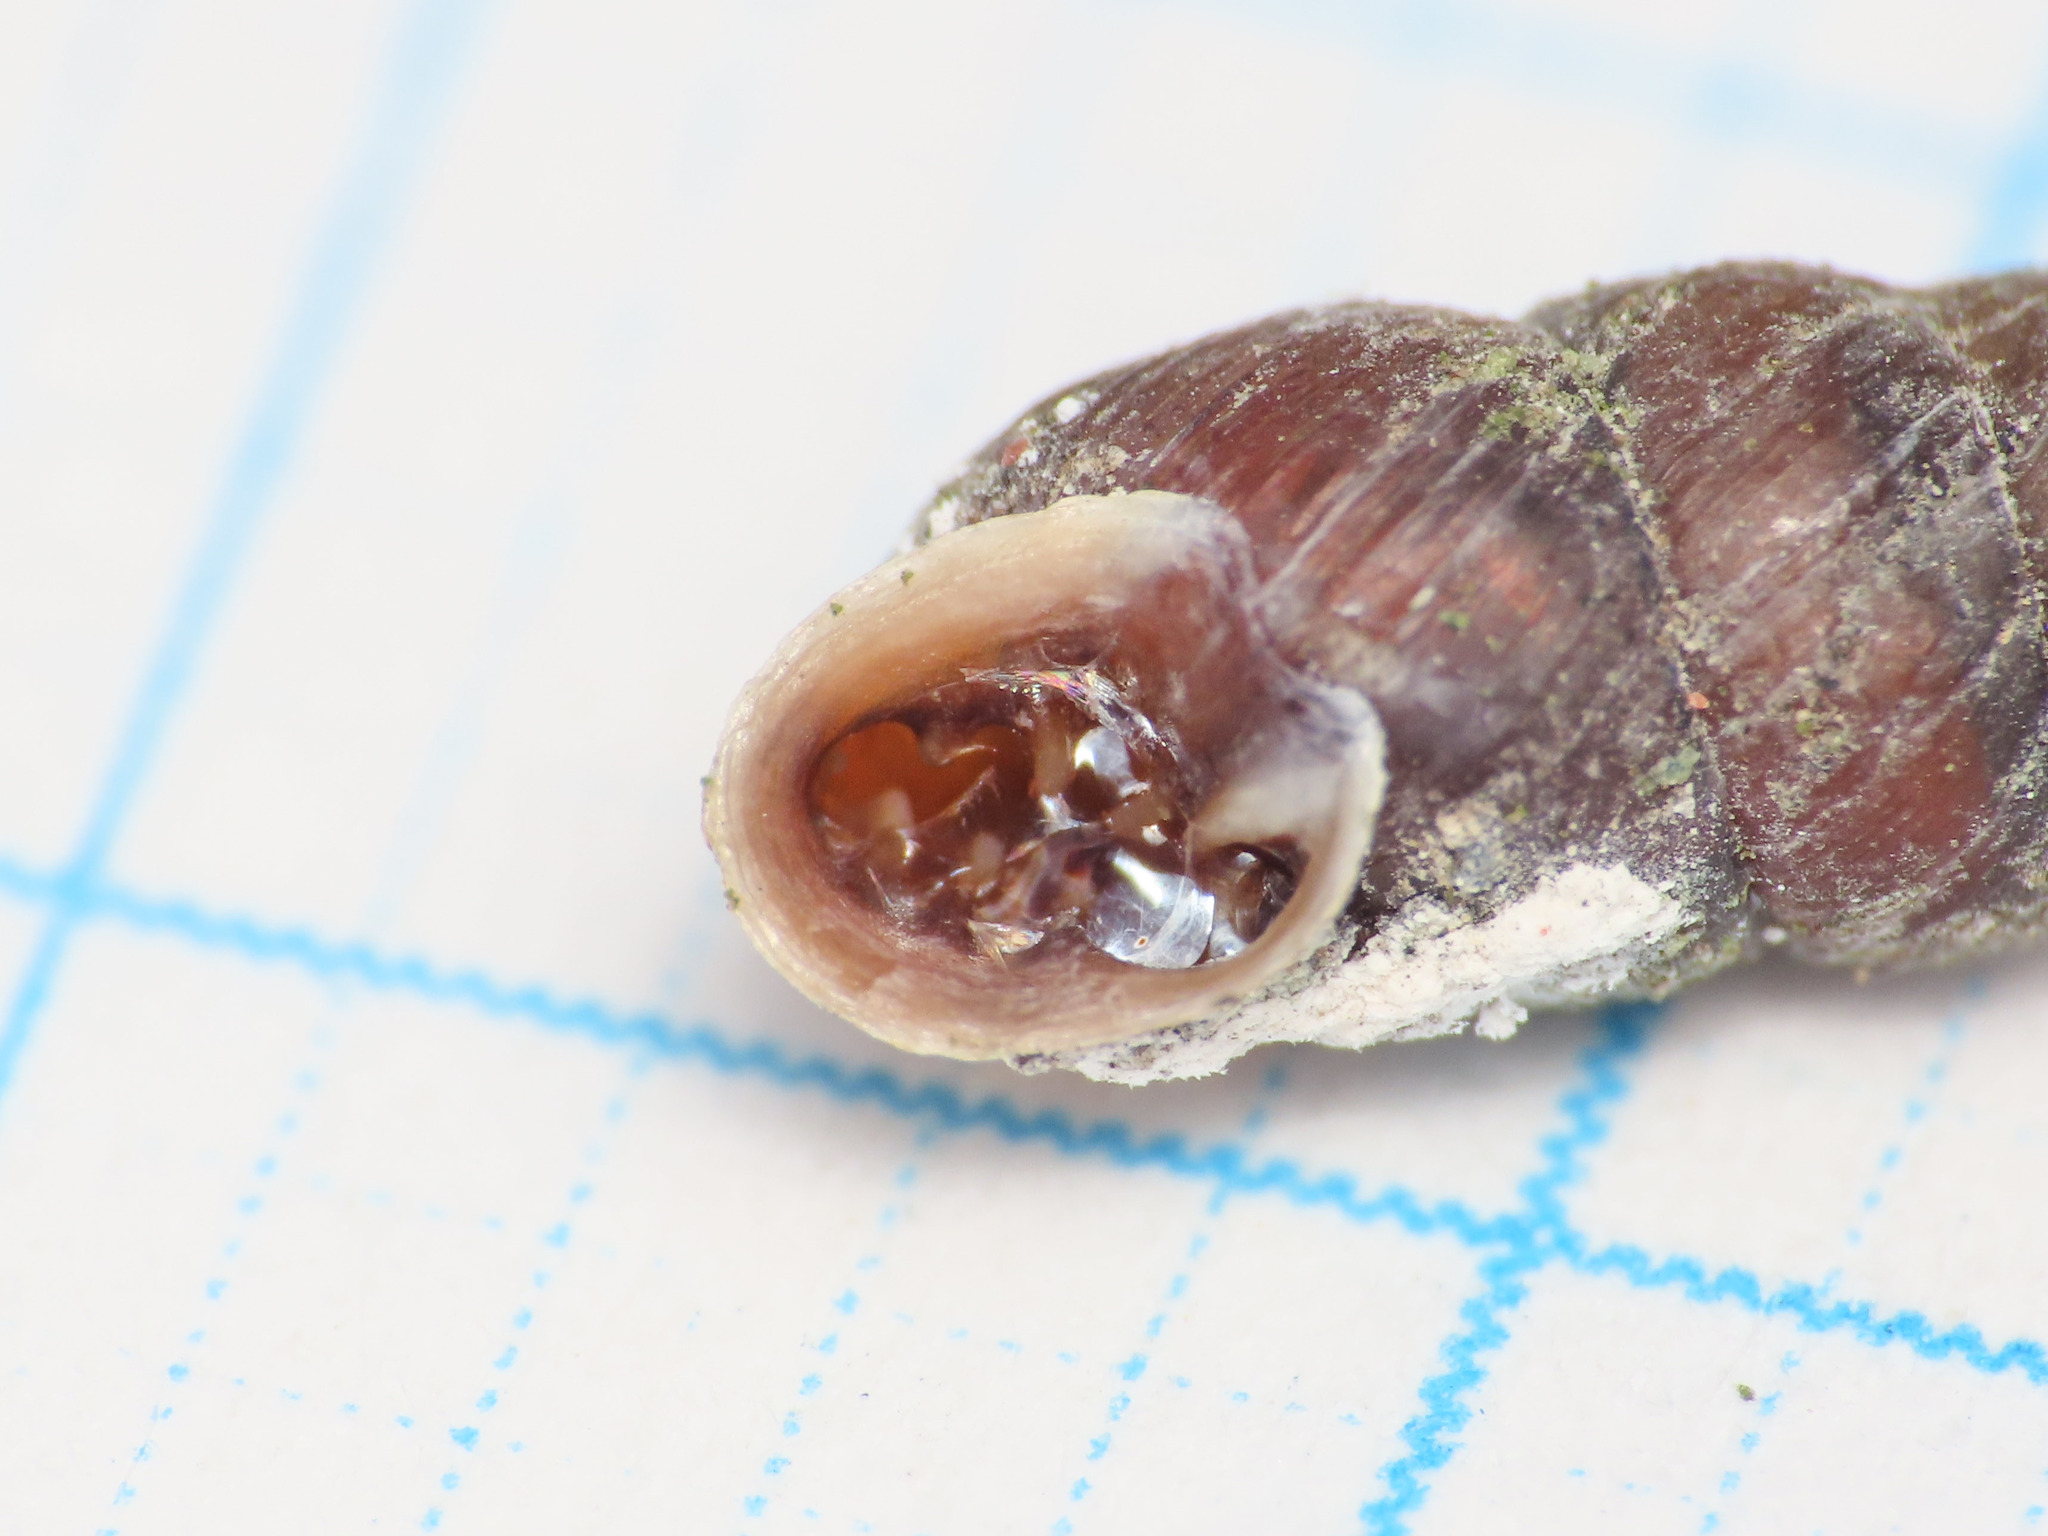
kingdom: Animalia
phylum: Mollusca
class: Gastropoda
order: Stylommatophora
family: Chondrinidae
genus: Chondrina
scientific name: Chondrina avenacea
